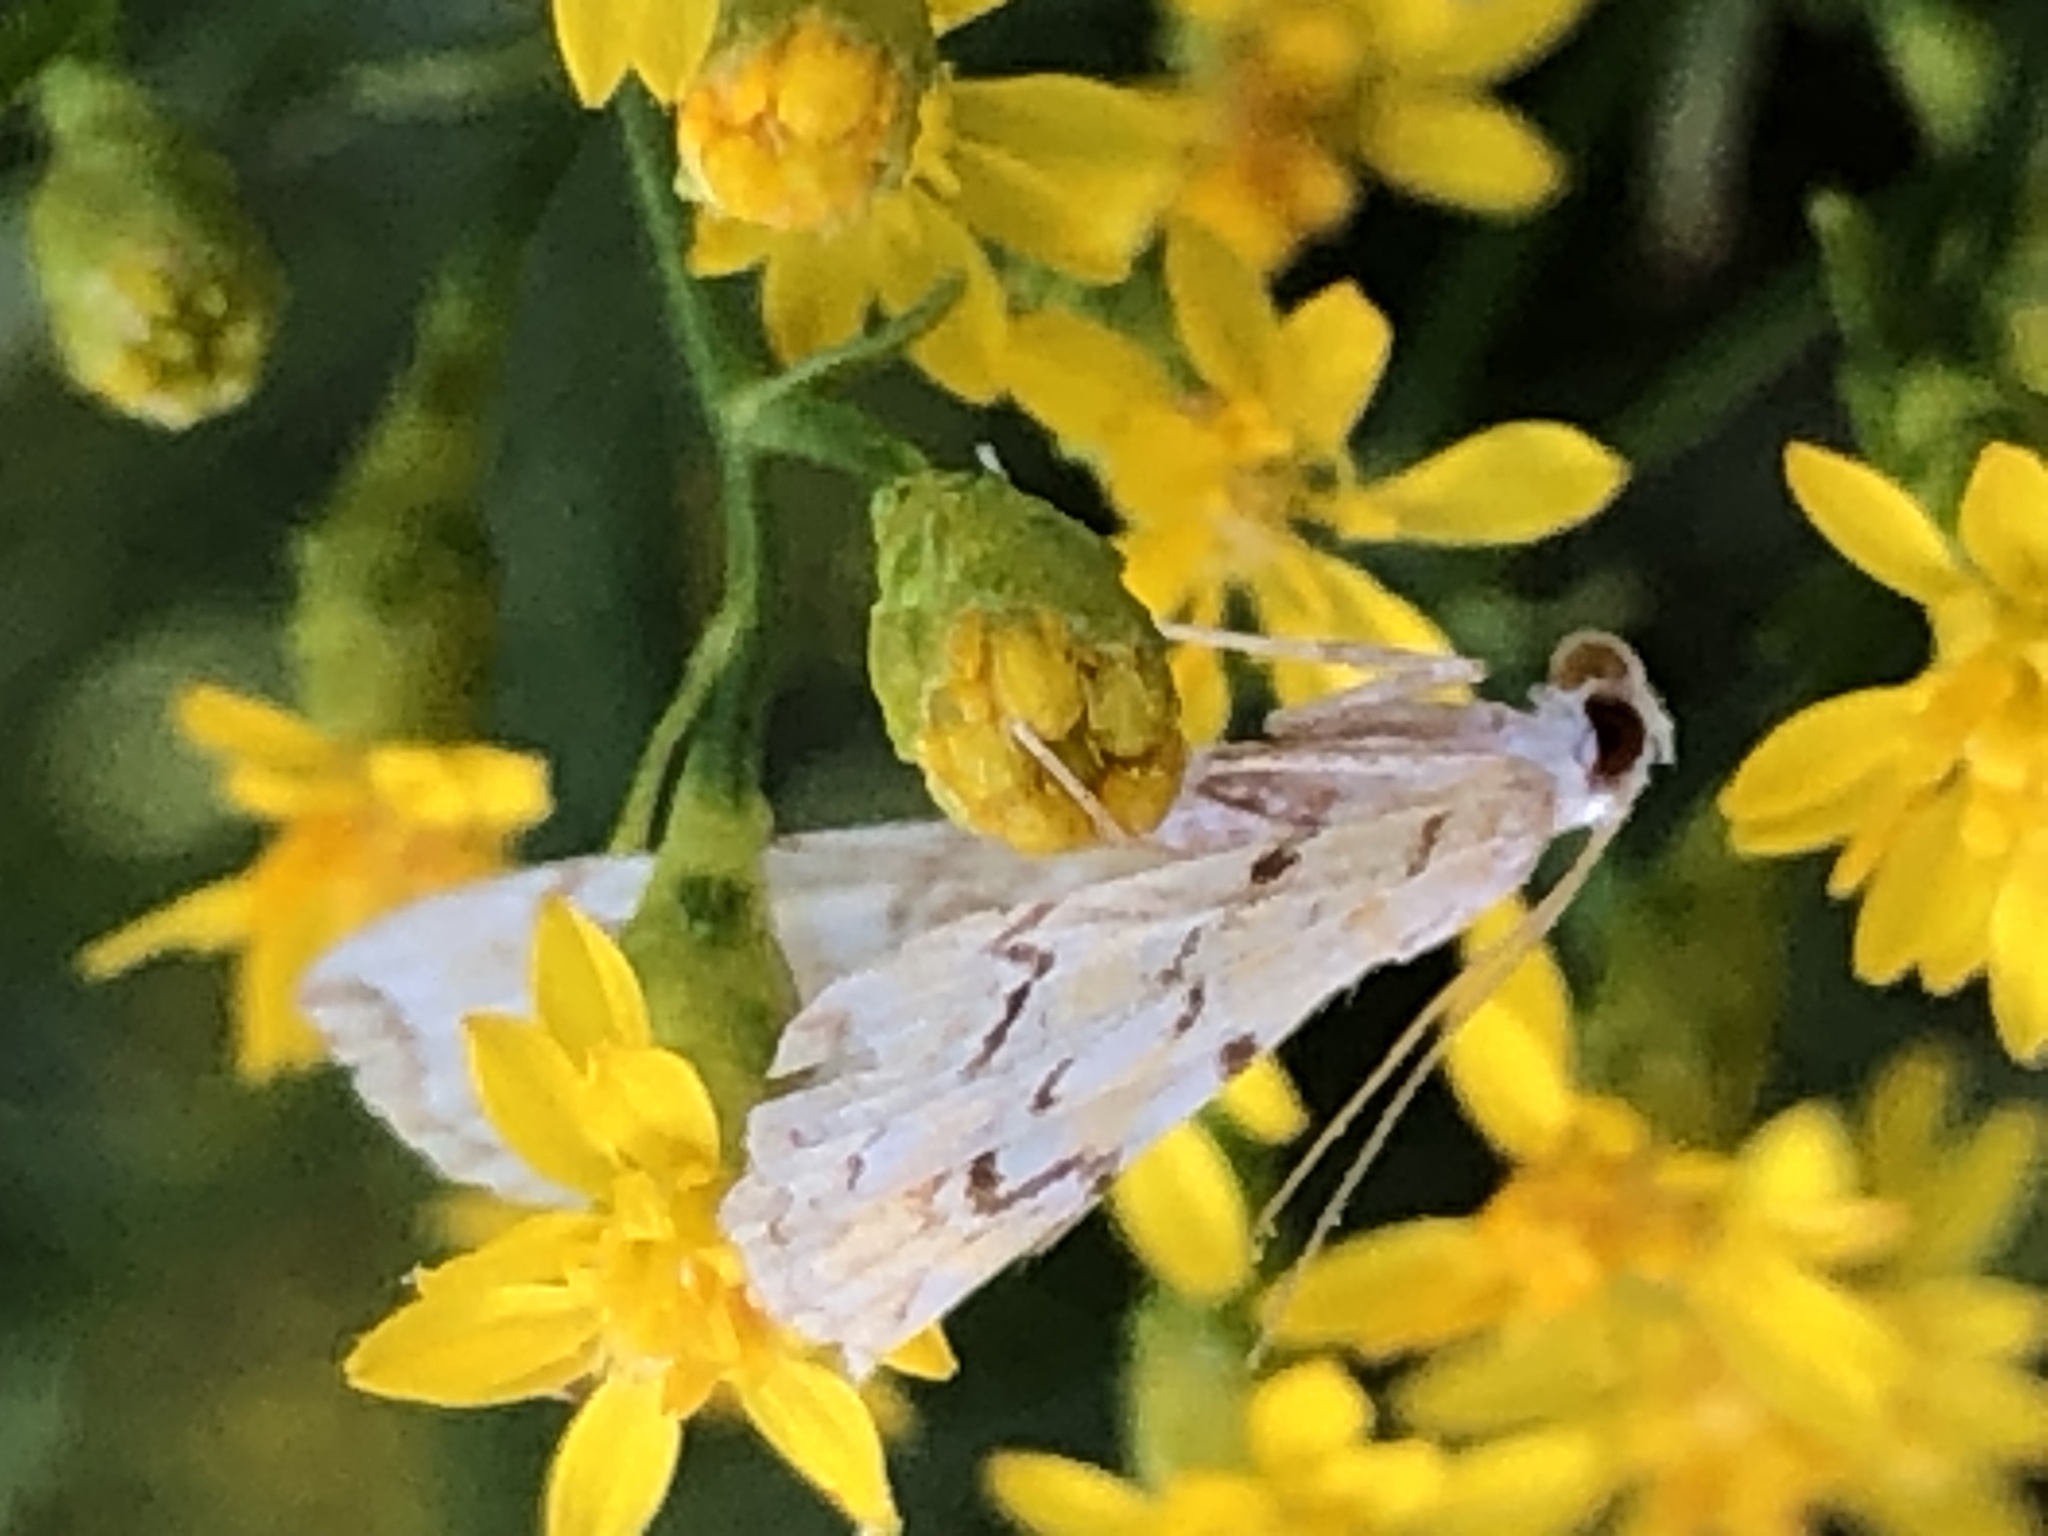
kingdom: Animalia
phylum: Arthropoda
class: Insecta
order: Lepidoptera
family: Crambidae
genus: Elophila
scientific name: Elophila icciusalis
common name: Pondside pyralid moth
